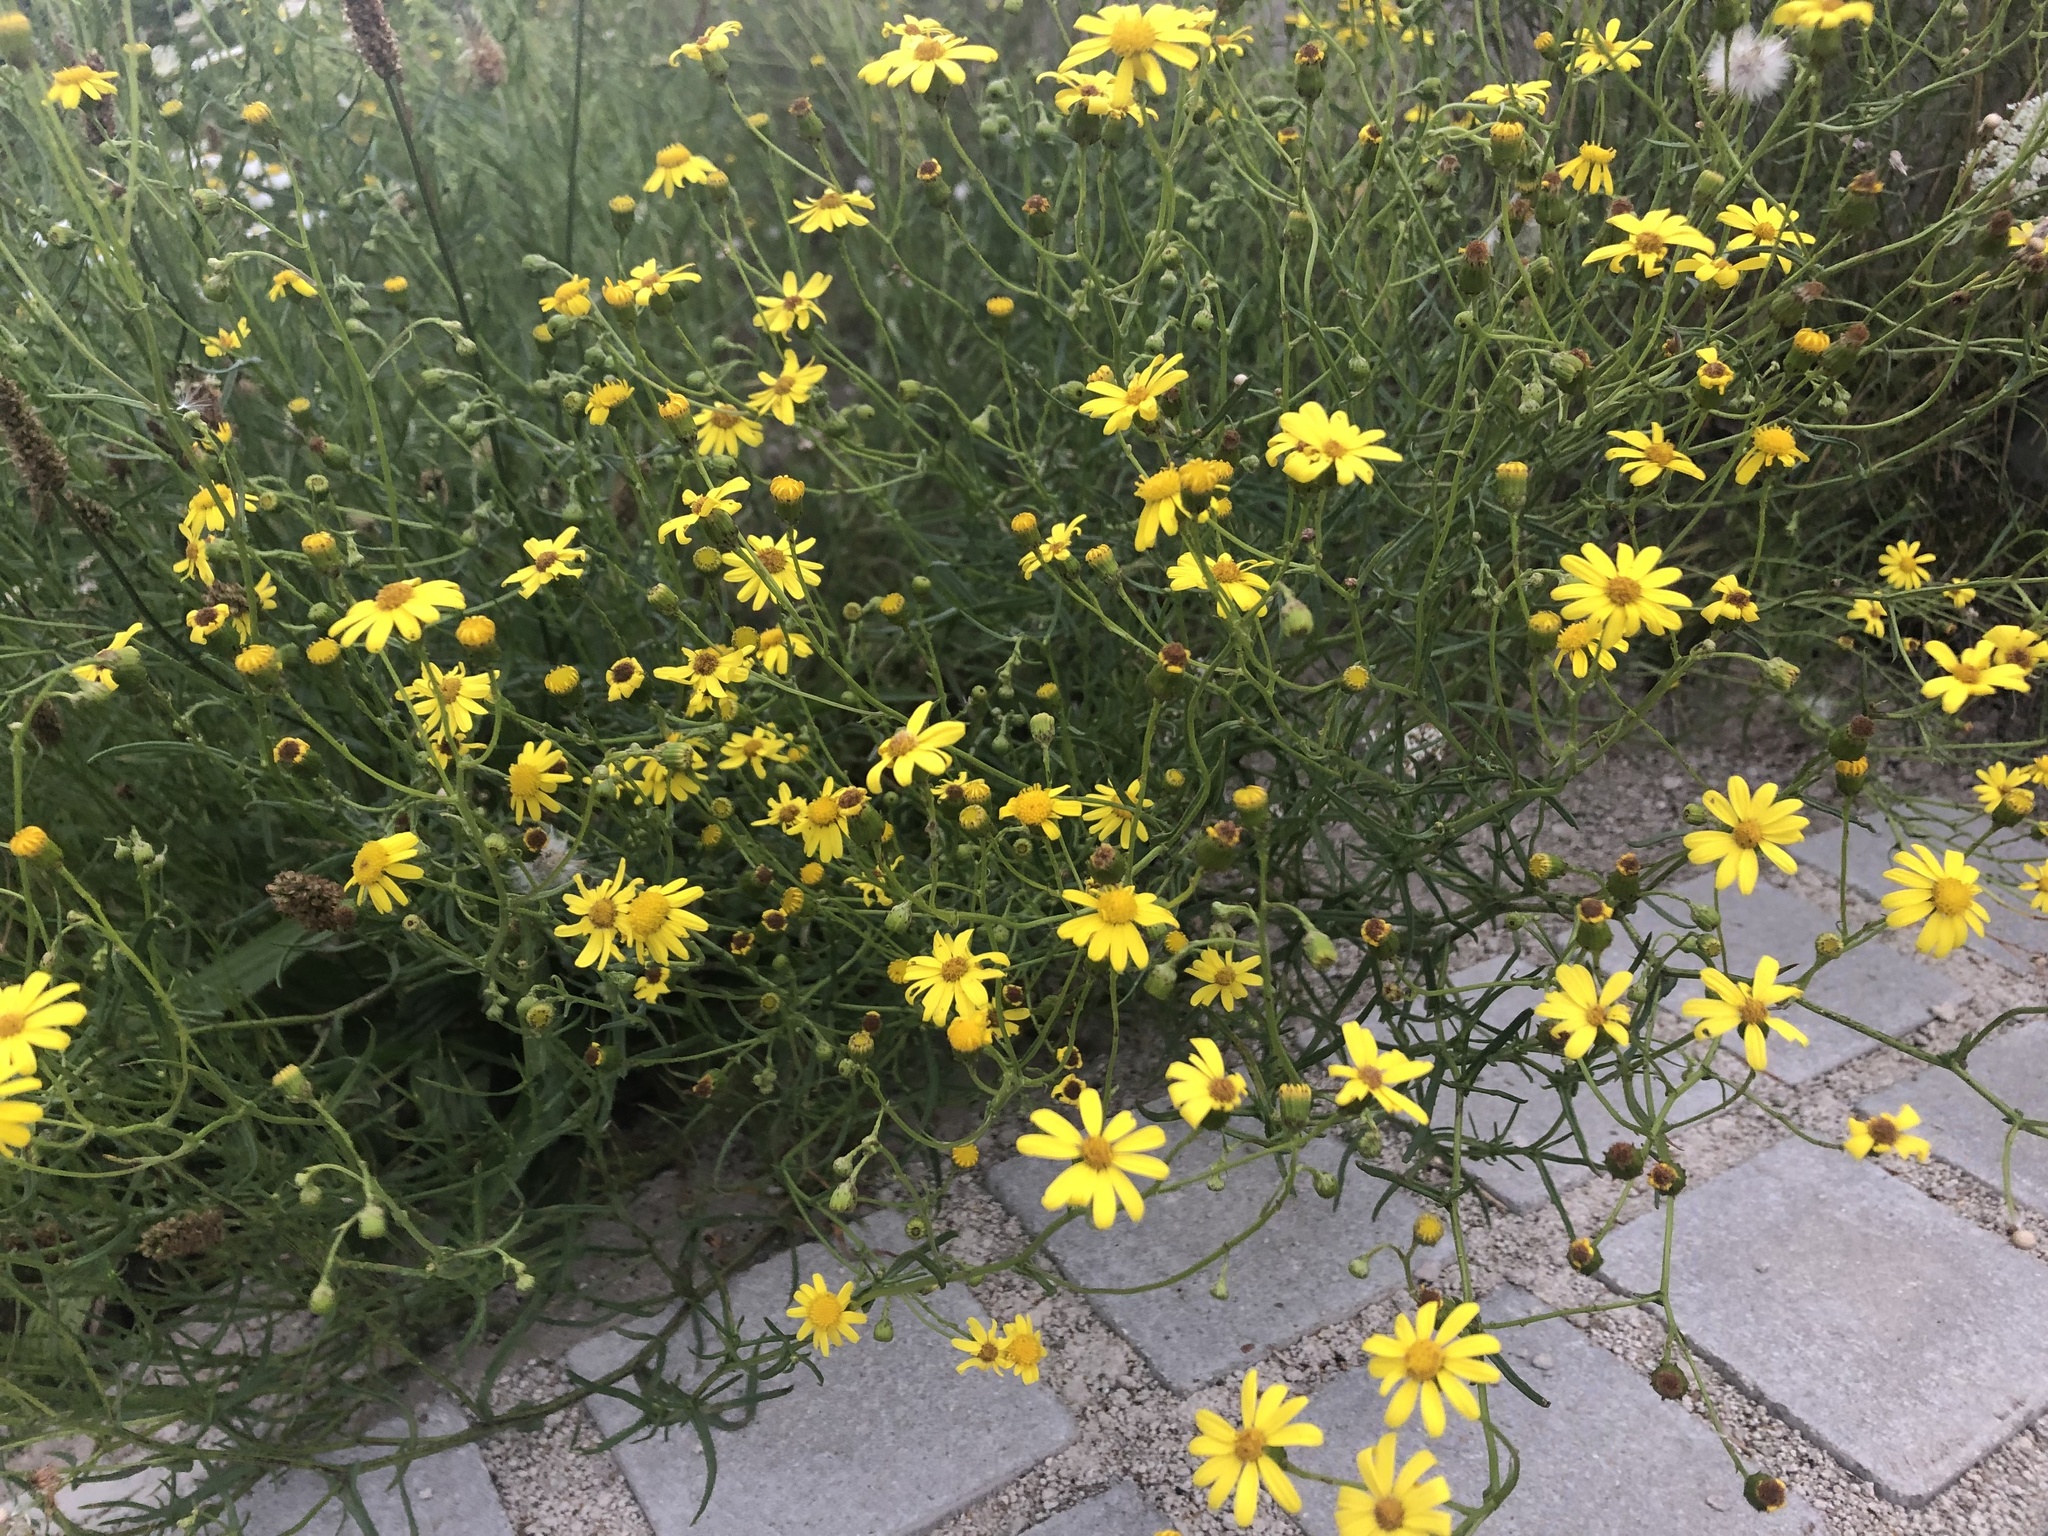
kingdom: Plantae
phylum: Tracheophyta
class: Magnoliopsida
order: Asterales
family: Asteraceae
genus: Senecio
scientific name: Senecio inaequidens
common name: Narrow-leaved ragwort
